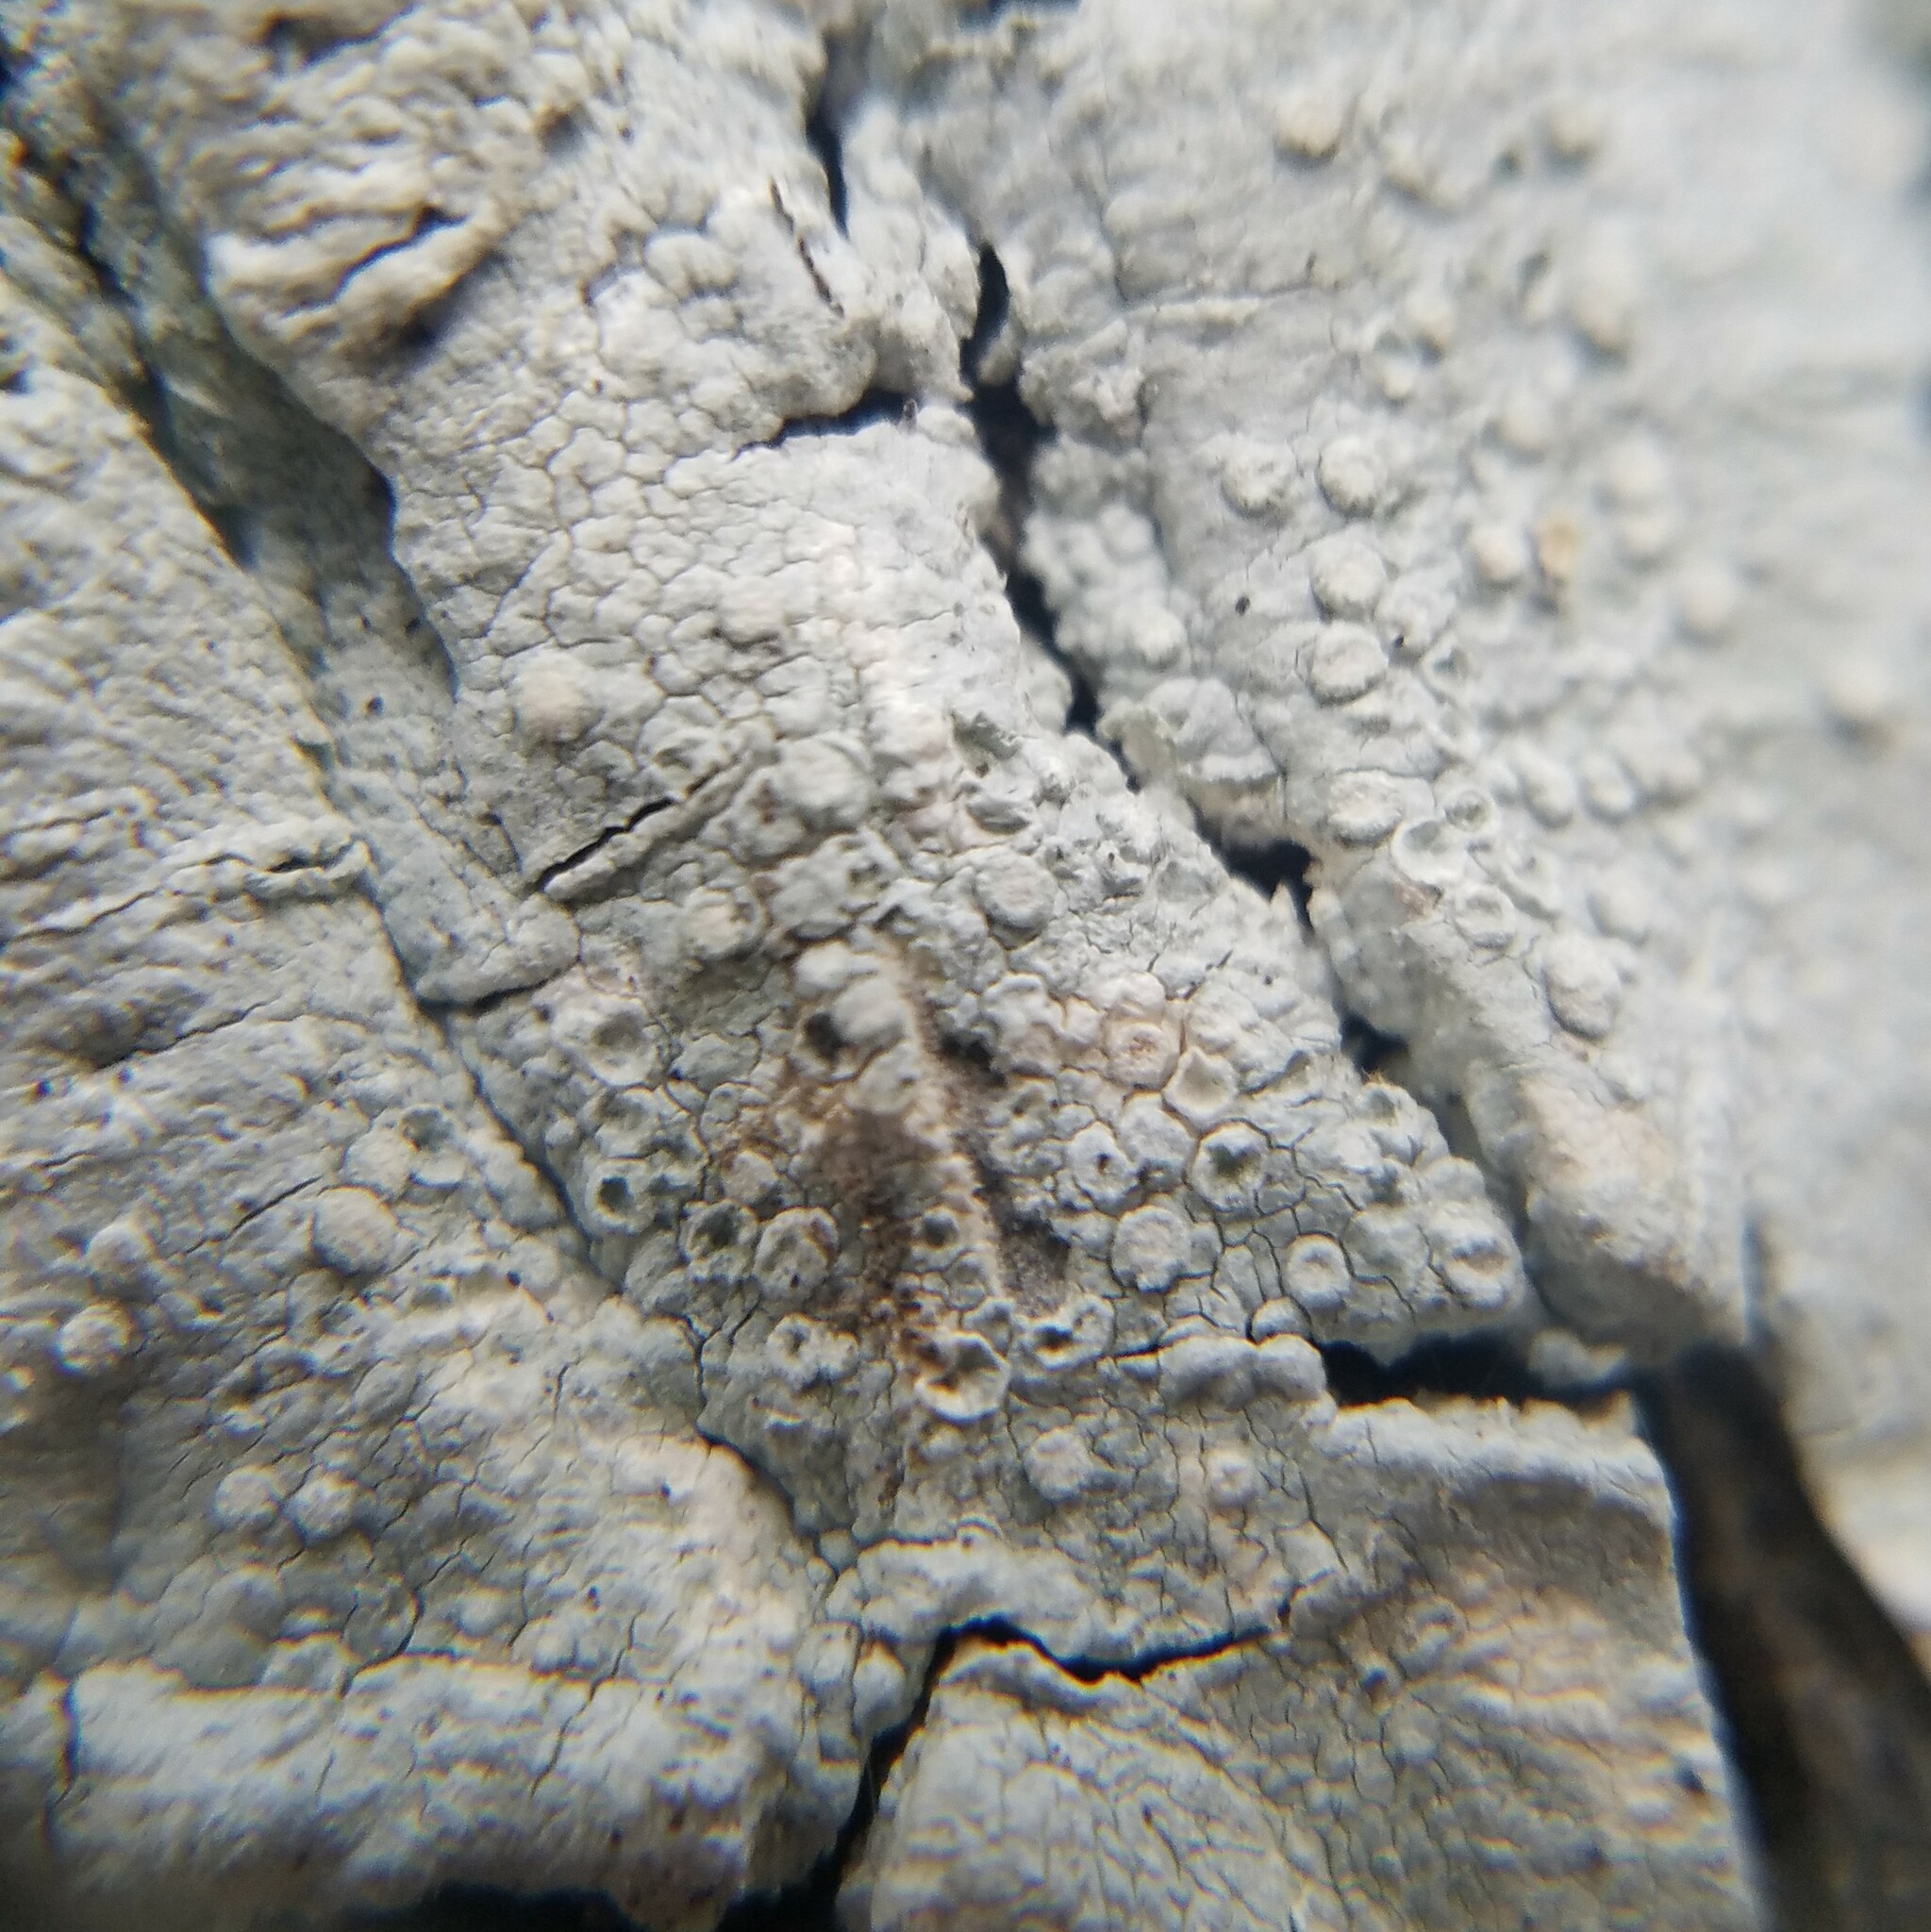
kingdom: Fungi
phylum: Ascomycota
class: Lecanoromycetes
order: Pertusariales
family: Varicellariaceae
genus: Varicellaria
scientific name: Varicellaria velata
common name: Rimmed wart lichen
